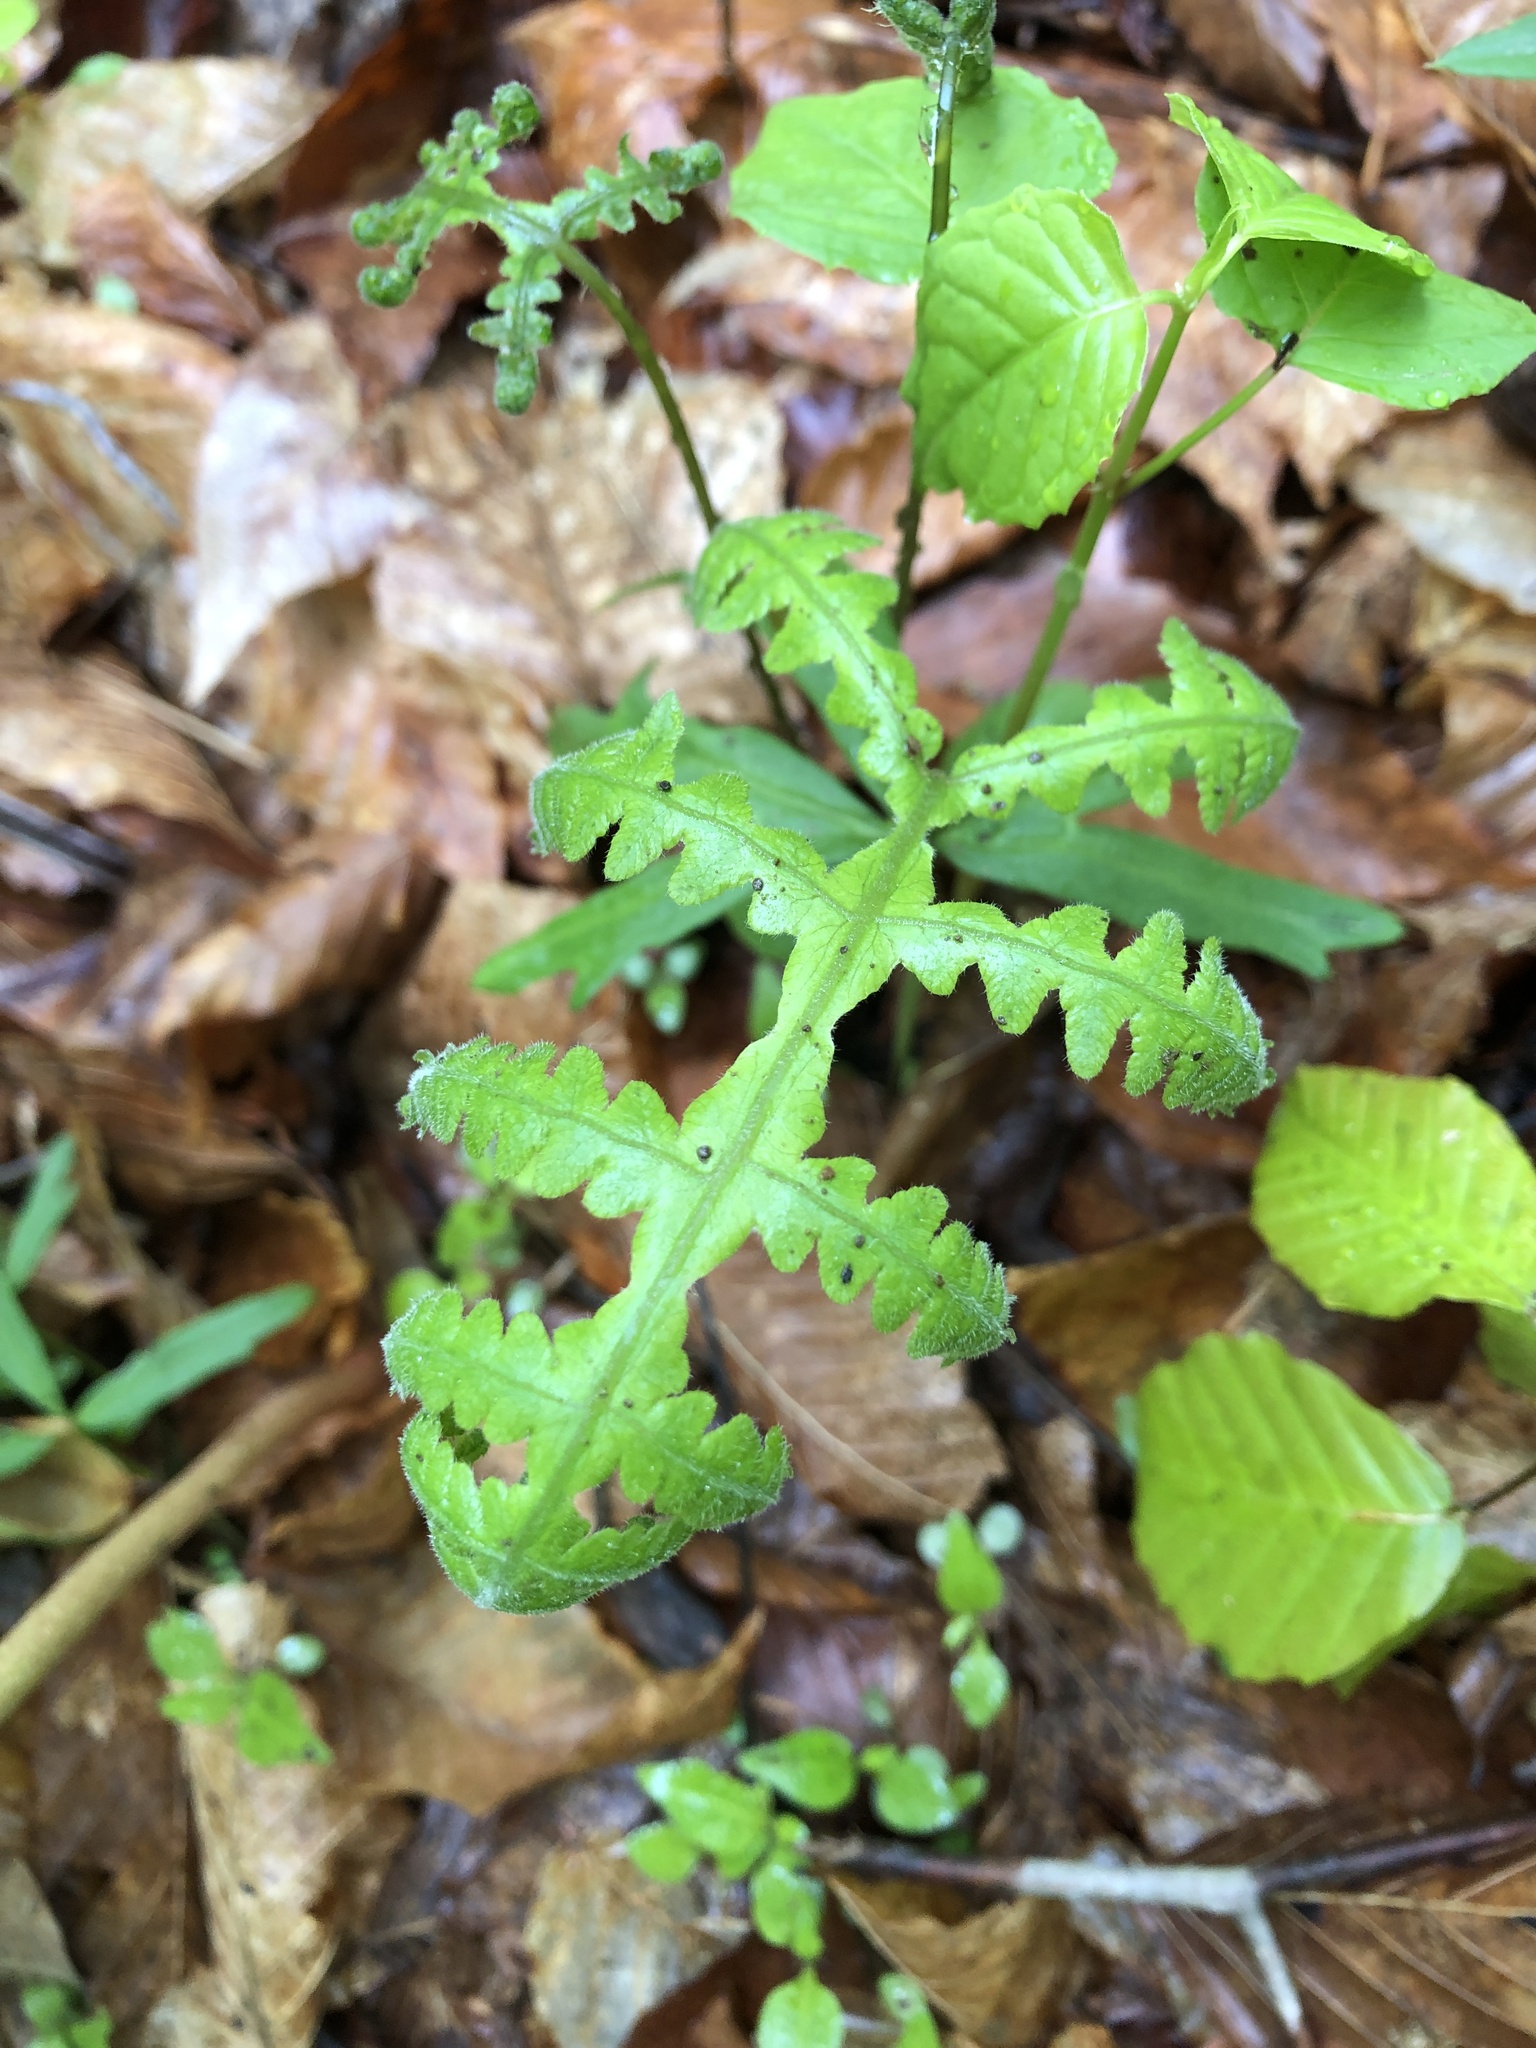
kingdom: Plantae
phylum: Tracheophyta
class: Polypodiopsida
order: Polypodiales
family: Thelypteridaceae
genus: Phegopteris
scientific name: Phegopteris hexagonoptera
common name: Broad beech fern
